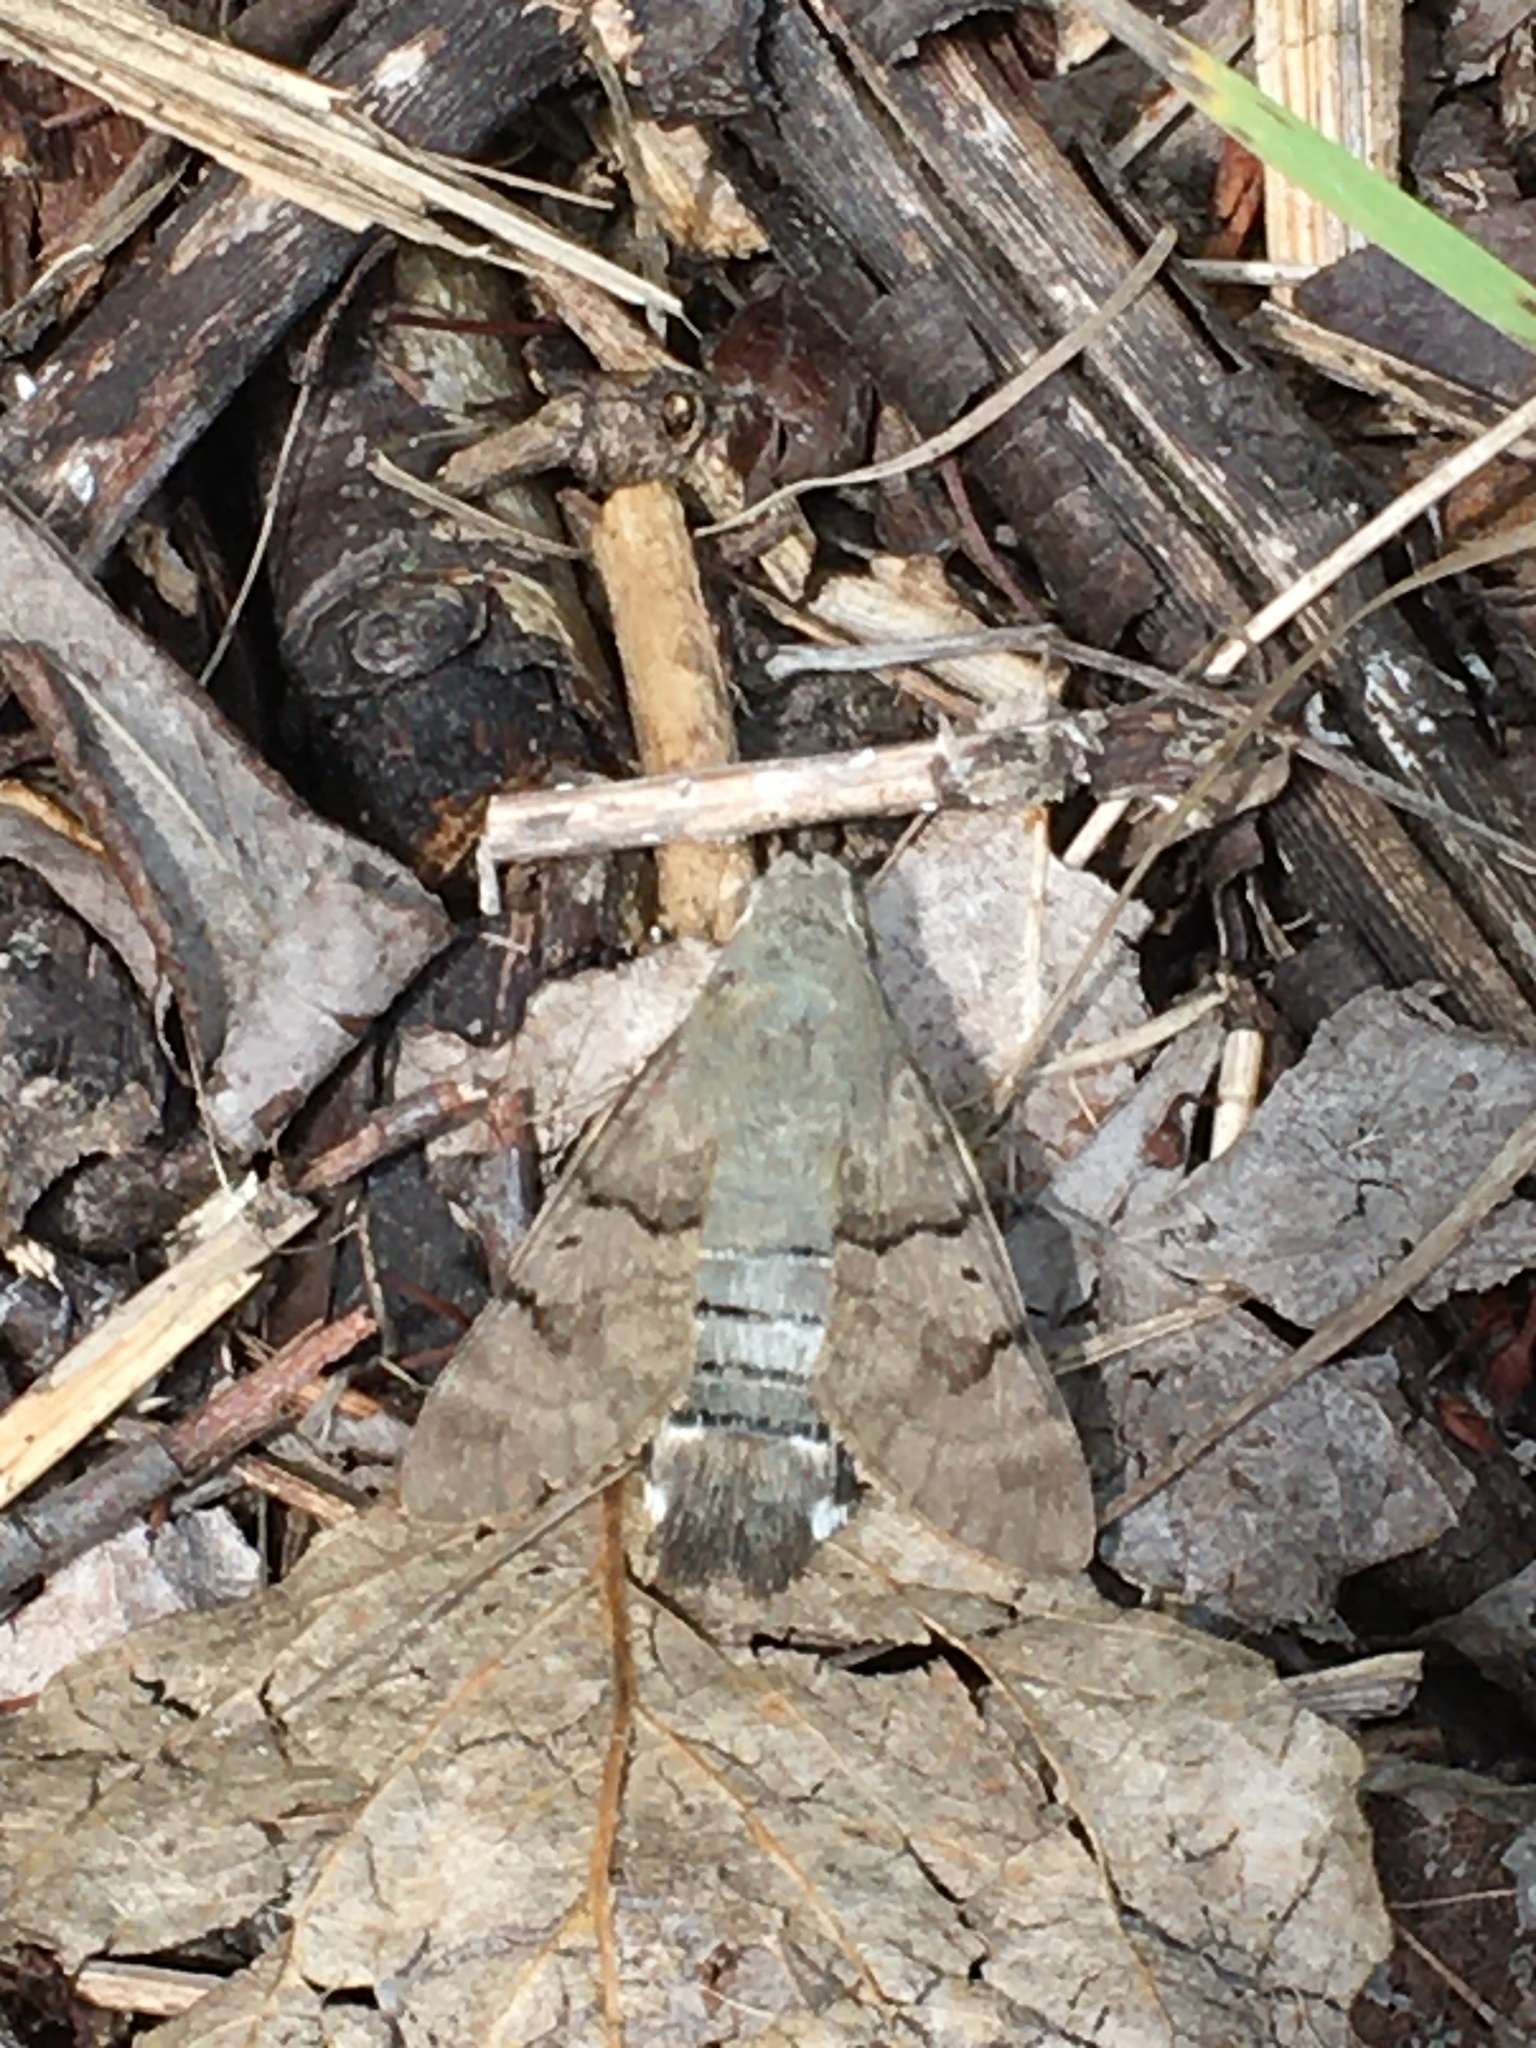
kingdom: Animalia
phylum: Arthropoda
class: Insecta
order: Lepidoptera
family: Sphingidae
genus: Macroglossum
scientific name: Macroglossum stellatarum
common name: Humming-bird hawk-moth
